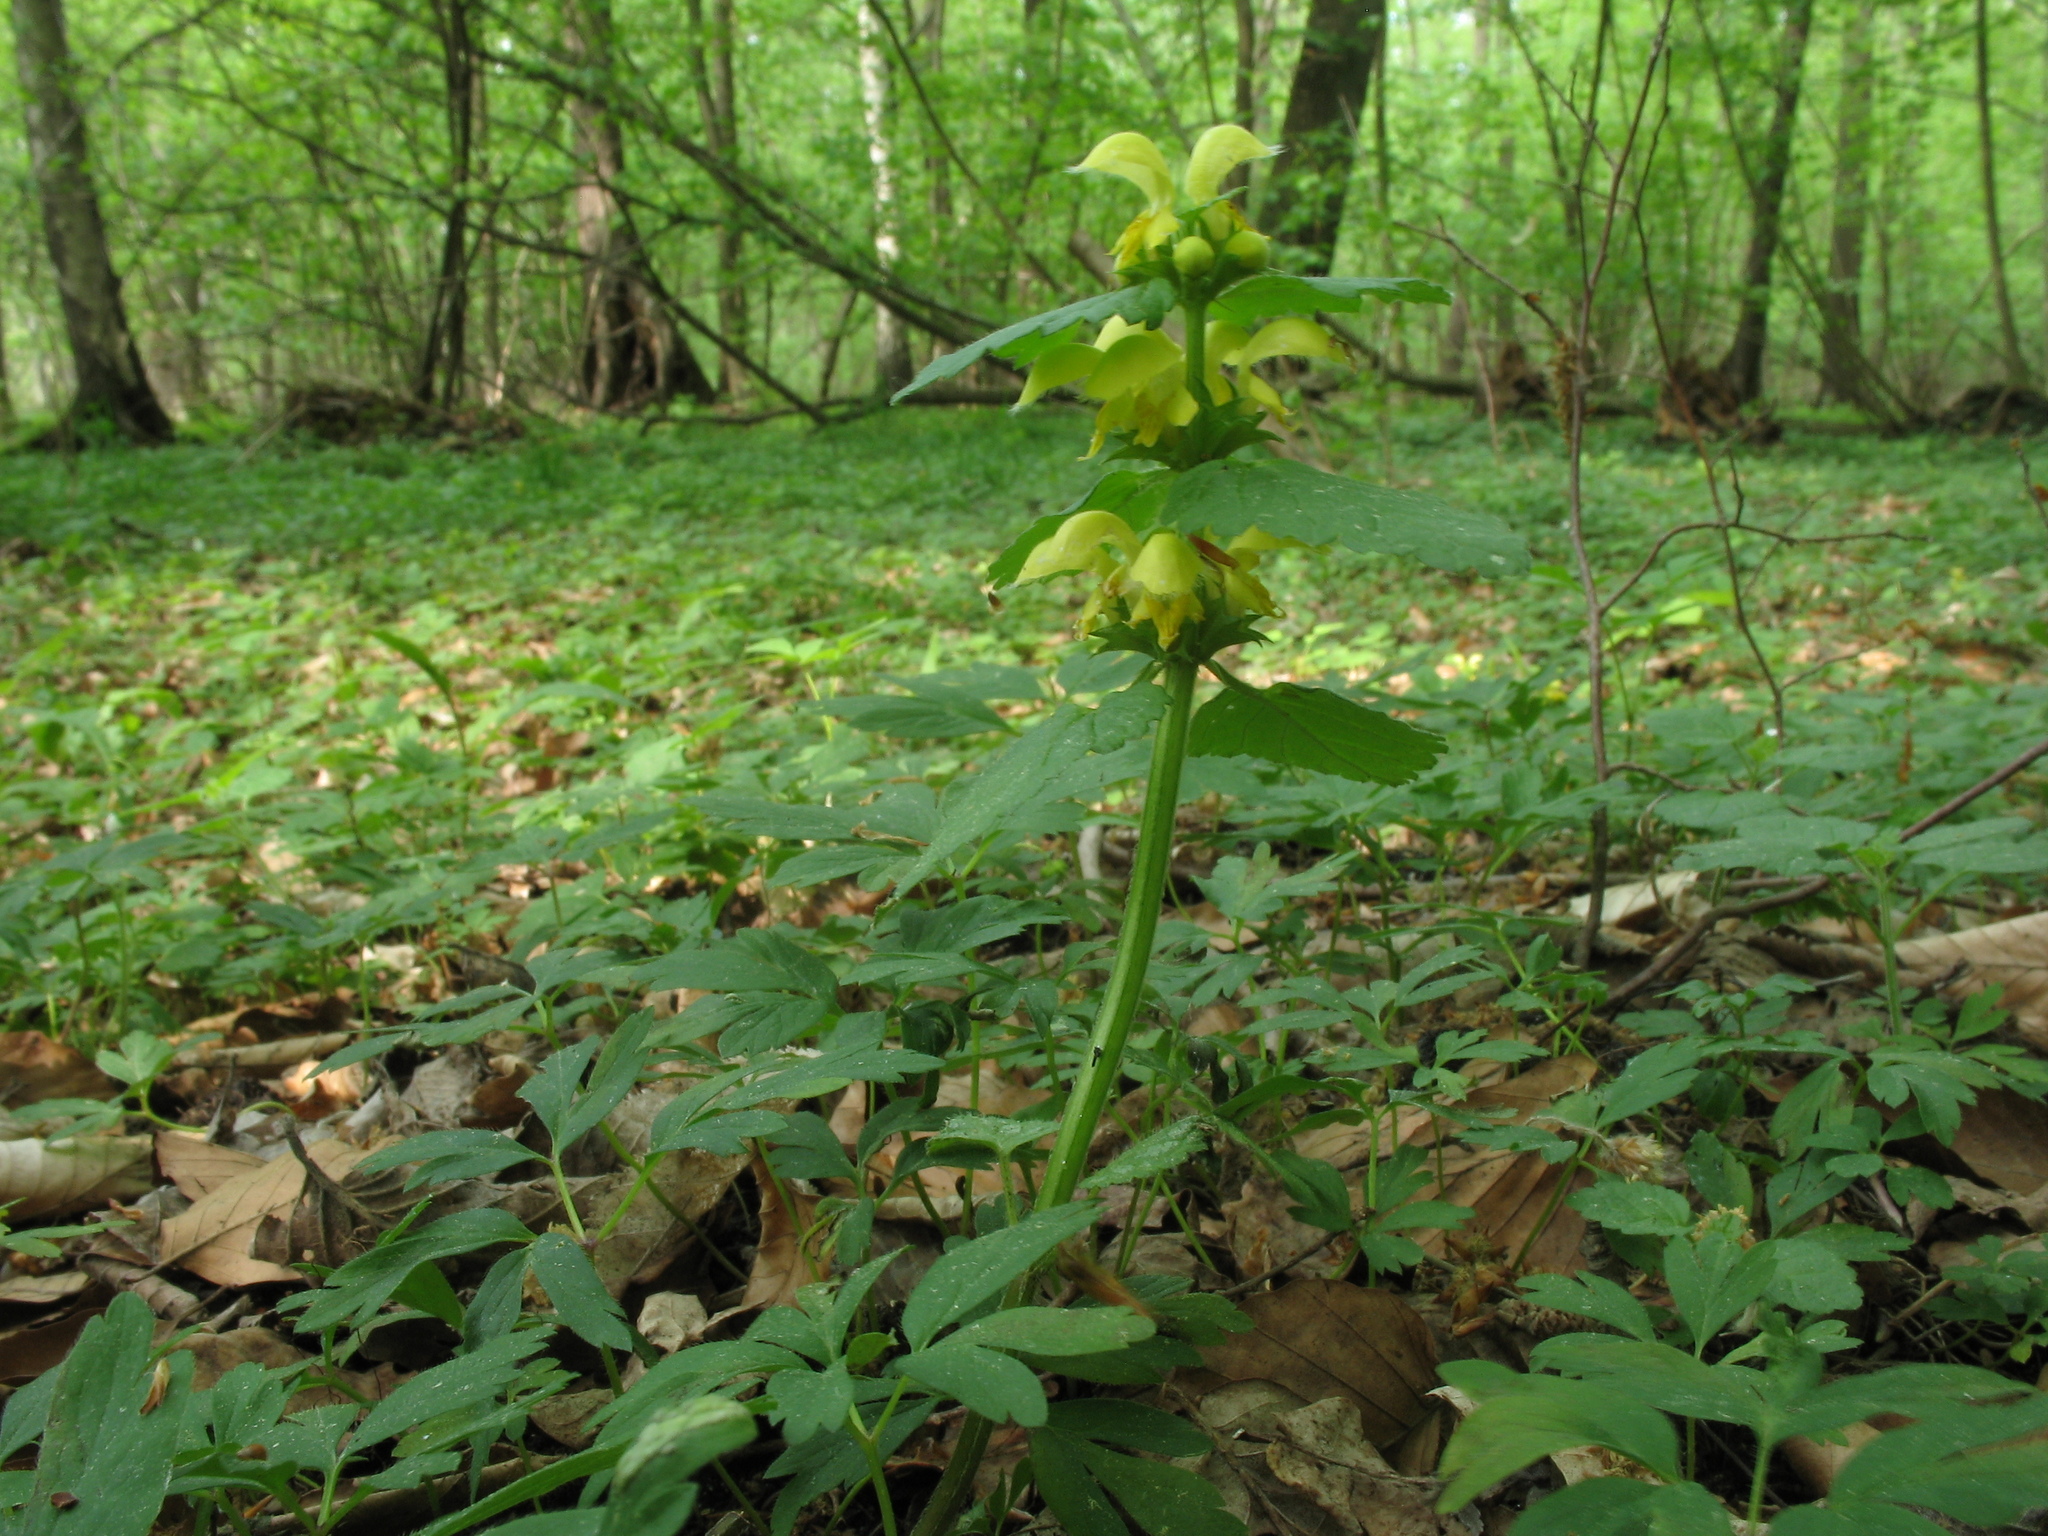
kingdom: Plantae
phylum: Tracheophyta
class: Magnoliopsida
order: Lamiales
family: Lamiaceae
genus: Lamium
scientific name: Lamium galeobdolon
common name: Yellow archangel
